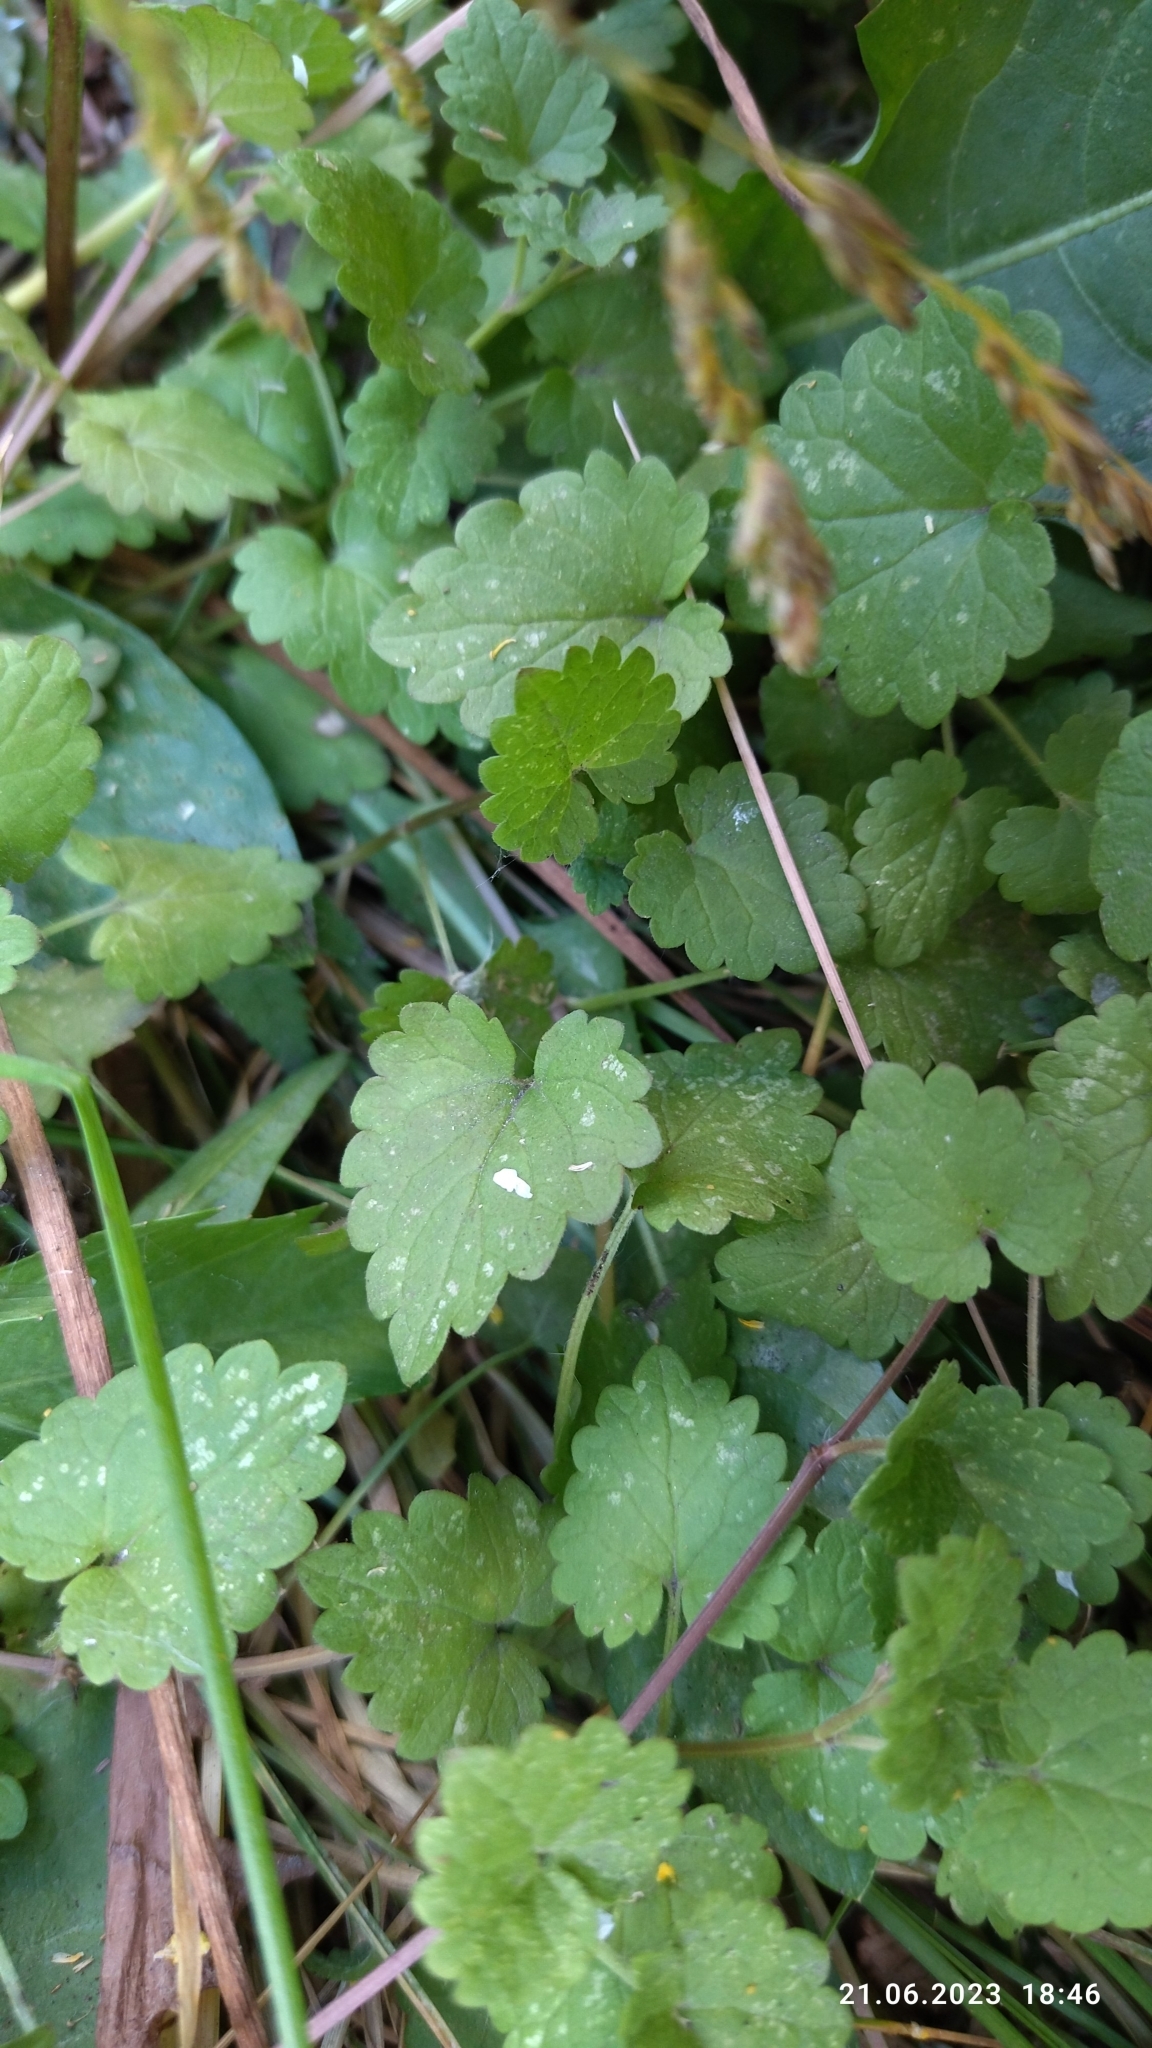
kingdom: Plantae
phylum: Tracheophyta
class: Magnoliopsida
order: Lamiales
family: Lamiaceae
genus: Glechoma
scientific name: Glechoma hederacea
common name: Ground ivy
